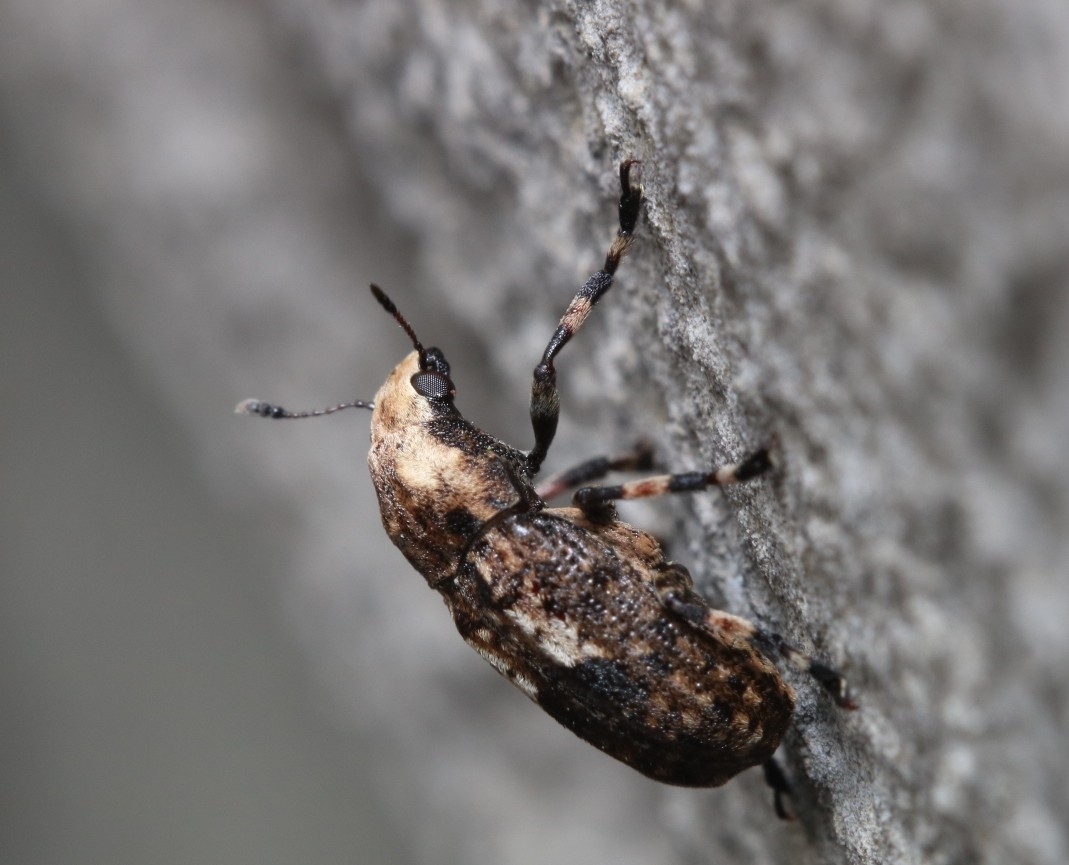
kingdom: Animalia
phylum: Arthropoda
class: Insecta
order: Coleoptera
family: Anthribidae
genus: Euparius
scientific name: Euparius marmoreus
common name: Marbled fungus weevil
